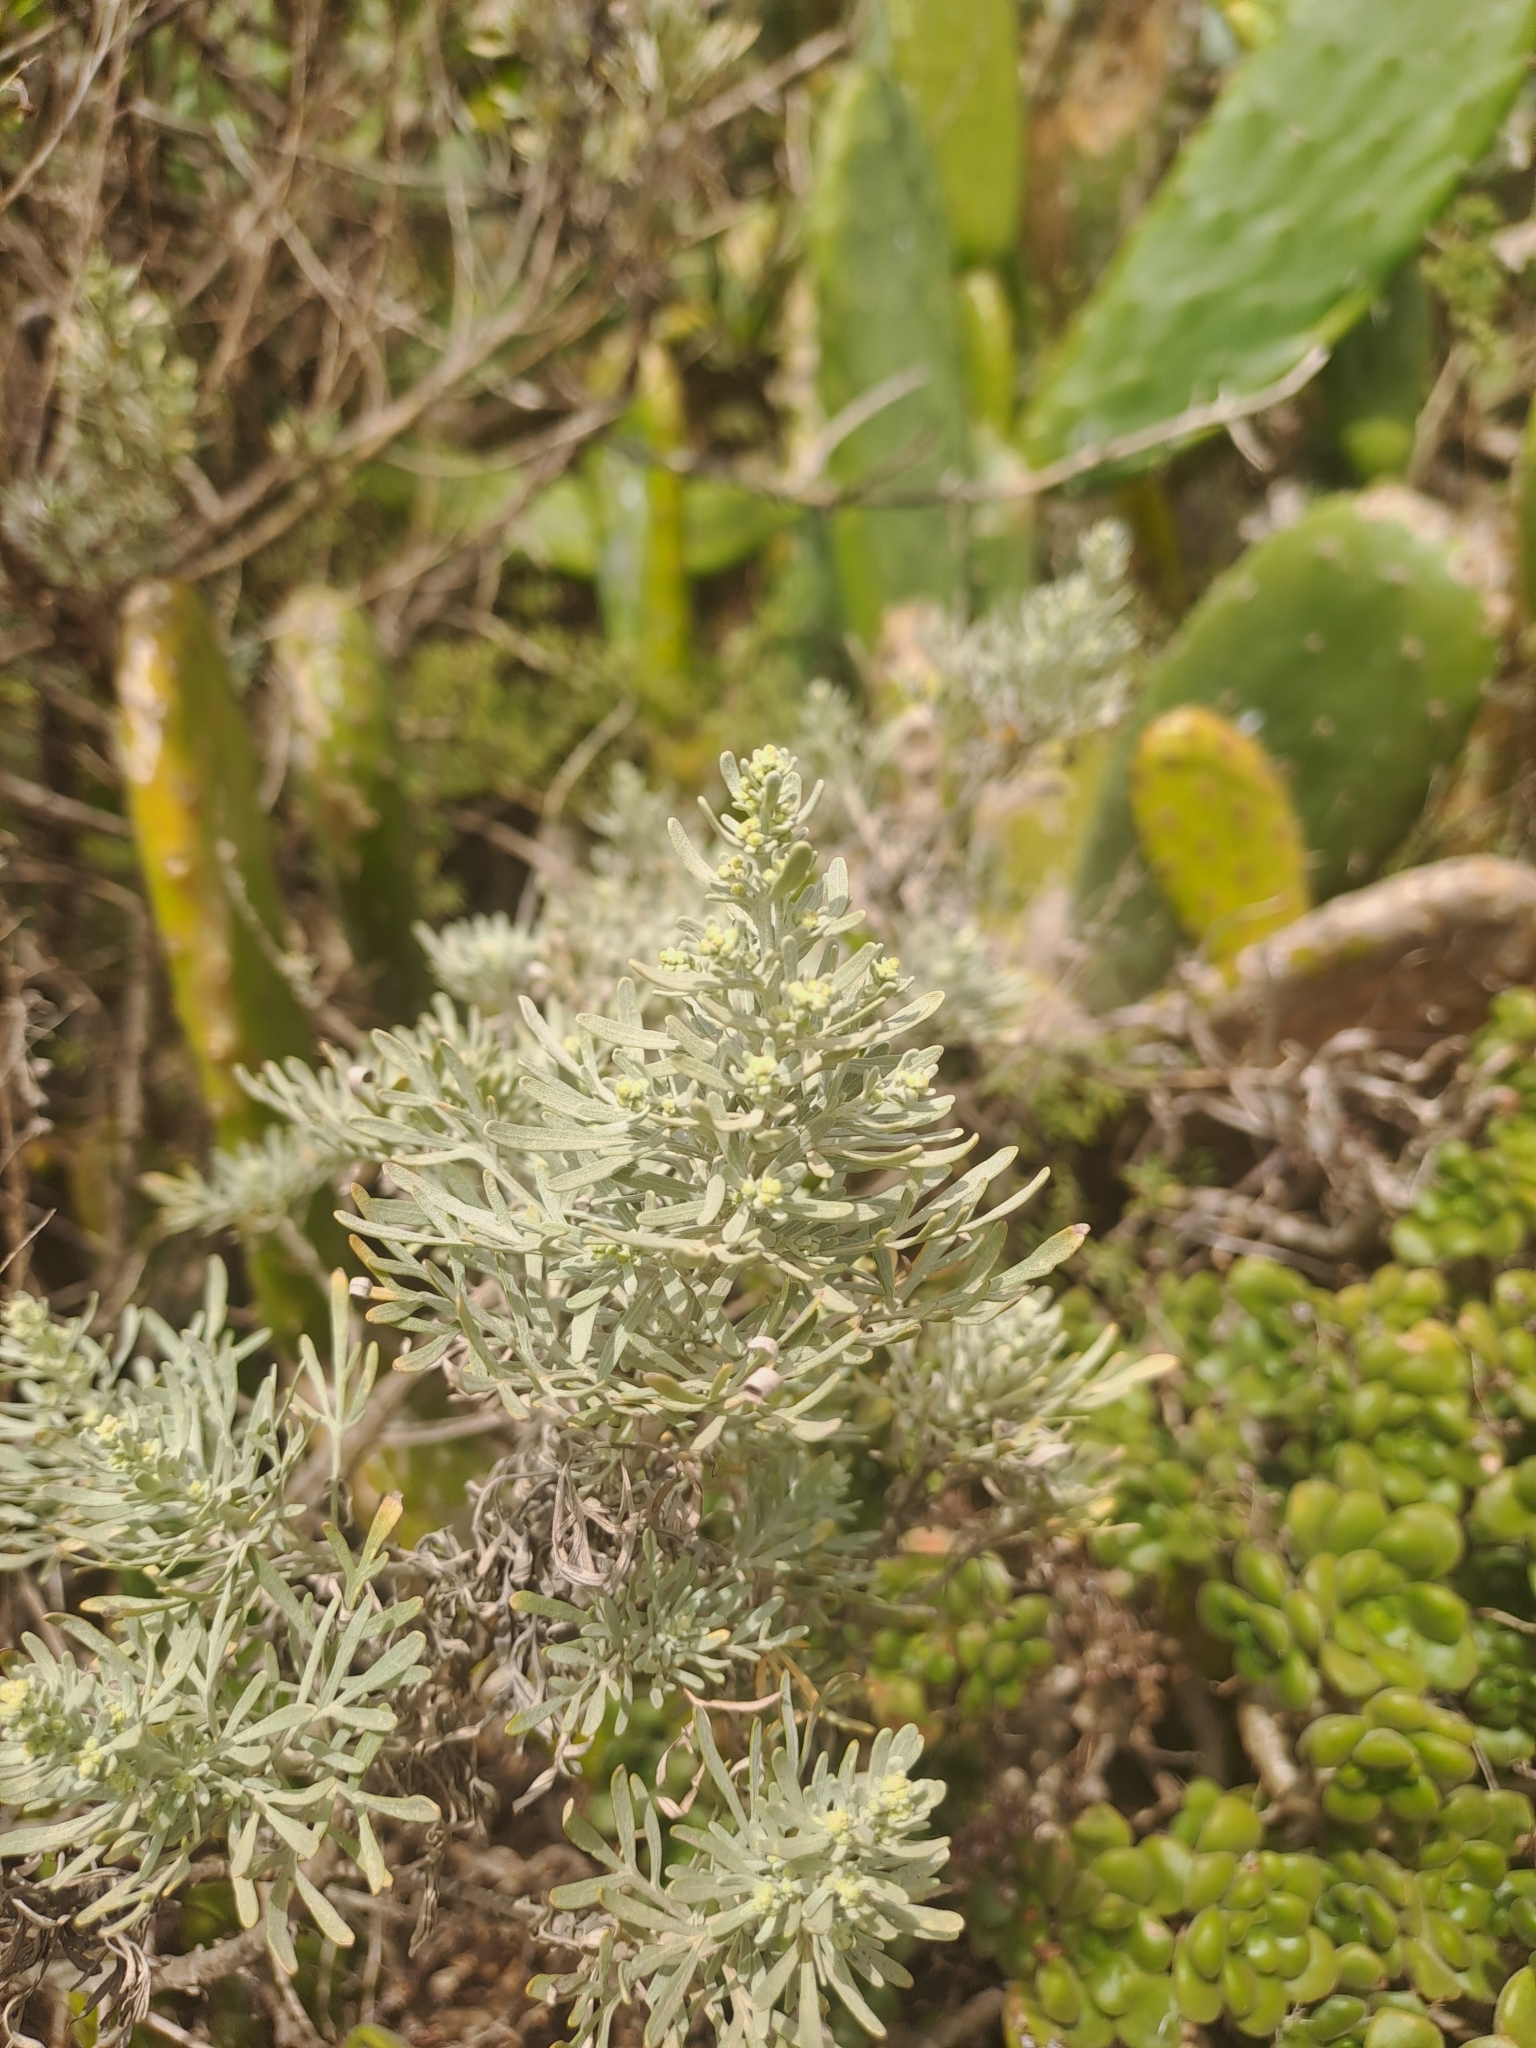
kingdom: Plantae
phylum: Tracheophyta
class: Magnoliopsida
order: Asterales
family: Asteraceae
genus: Artemisia
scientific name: Artemisia thuscula
